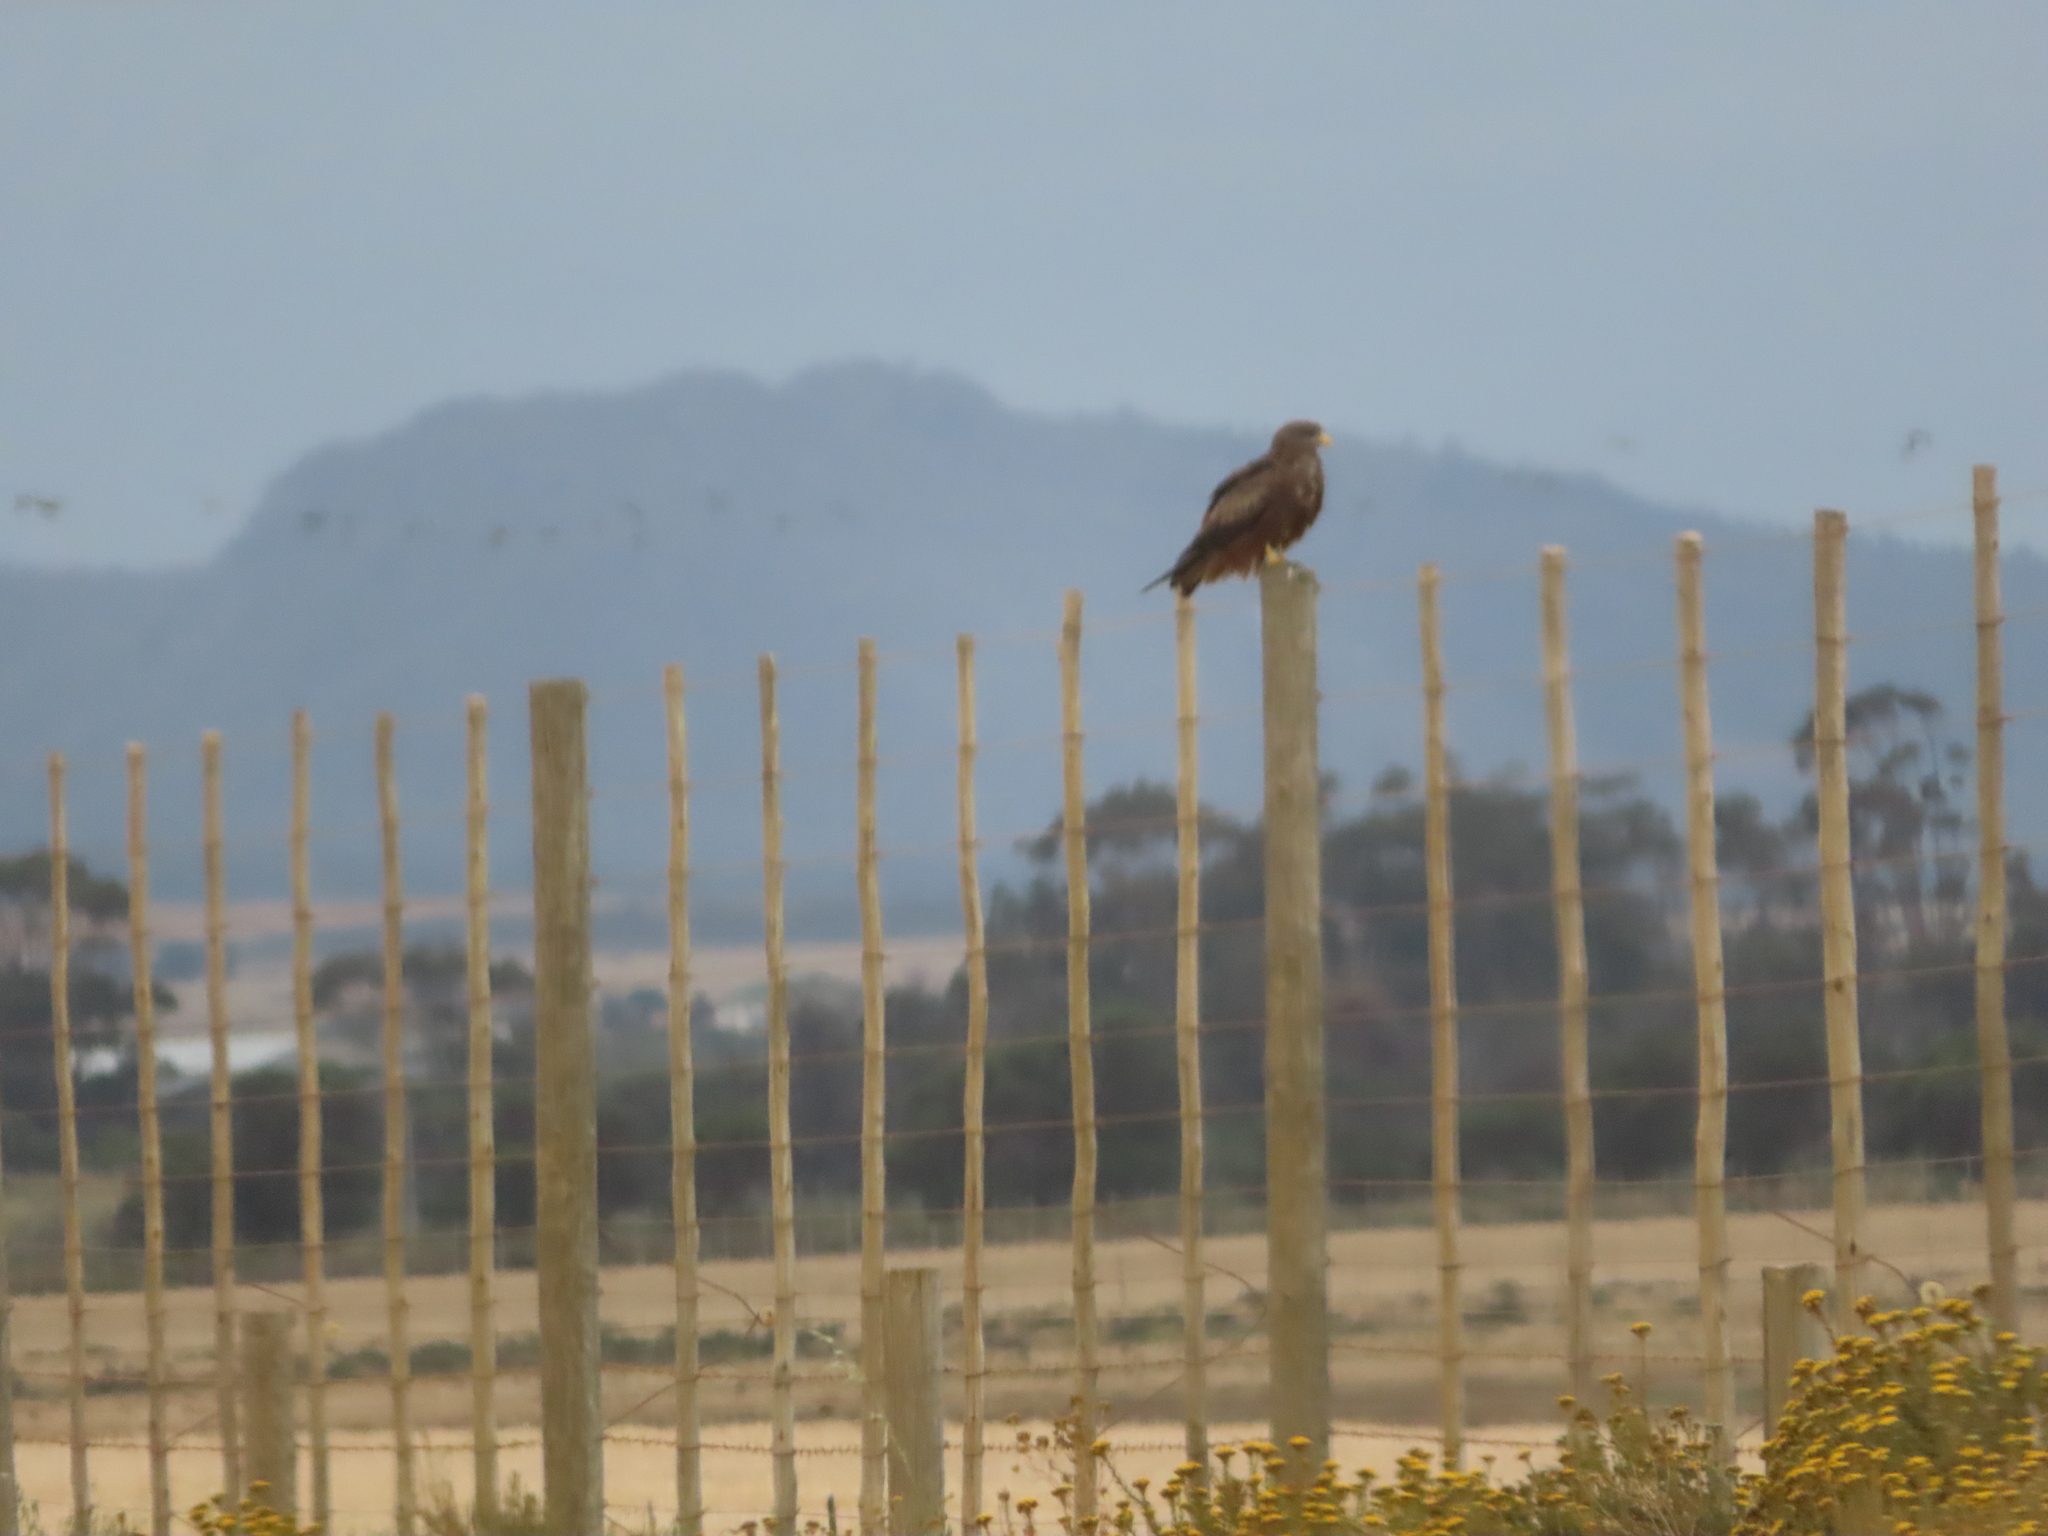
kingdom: Animalia
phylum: Chordata
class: Aves
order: Accipitriformes
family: Accipitridae
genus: Milvus
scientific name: Milvus migrans
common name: Black kite
